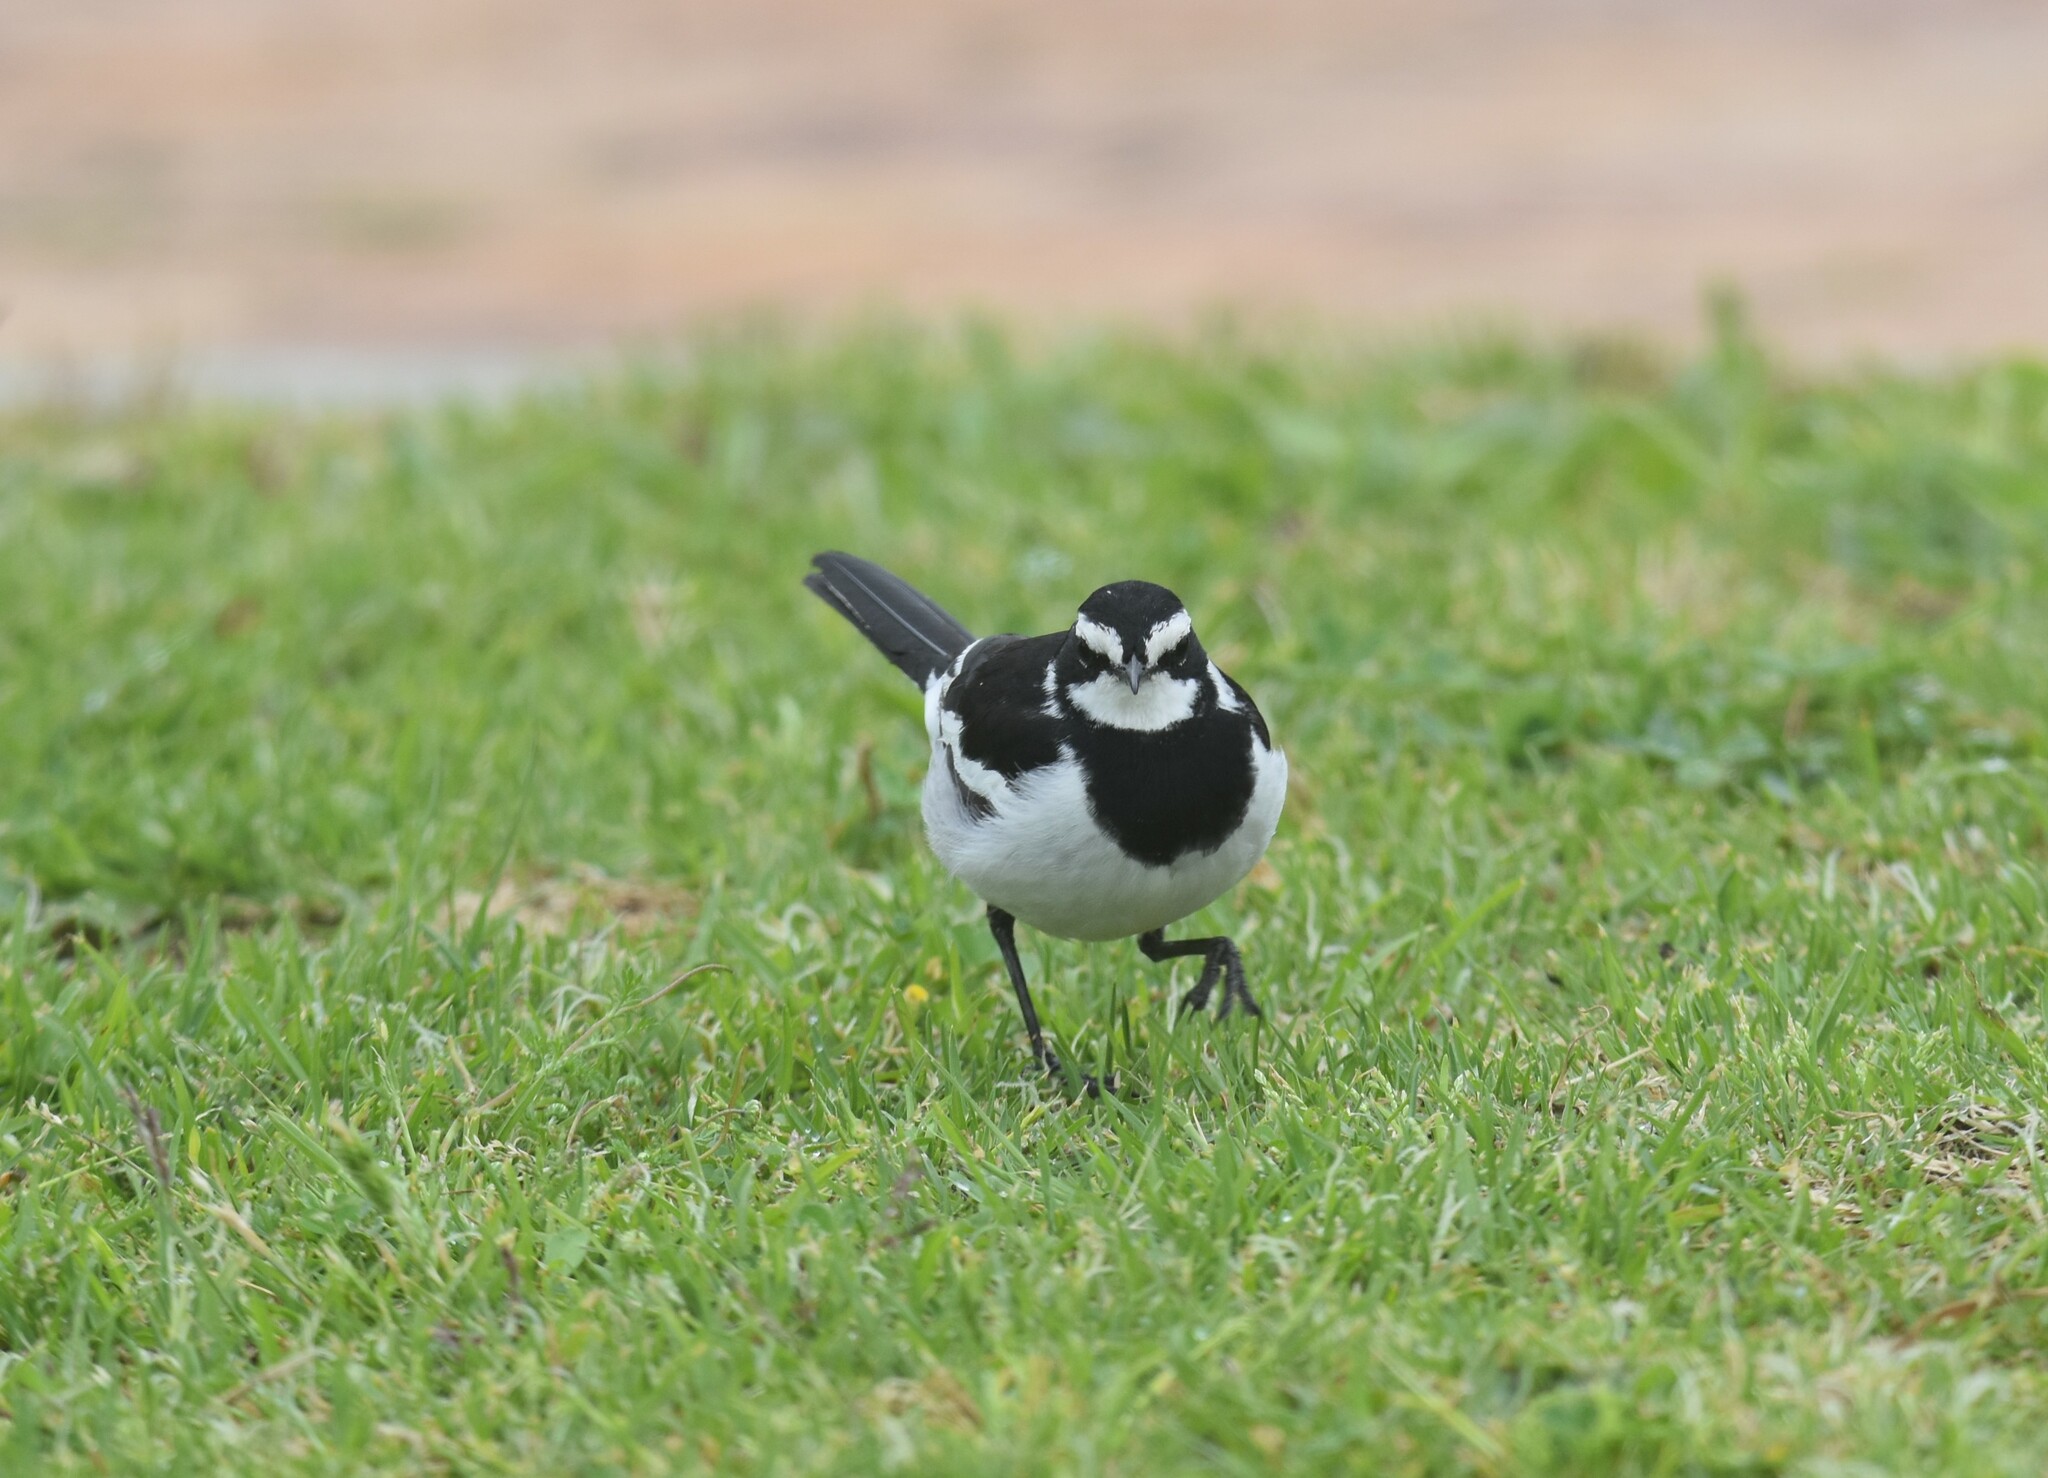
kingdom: Animalia
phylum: Chordata
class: Aves
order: Passeriformes
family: Motacillidae
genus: Motacilla
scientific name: Motacilla aguimp
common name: African pied wagtail
